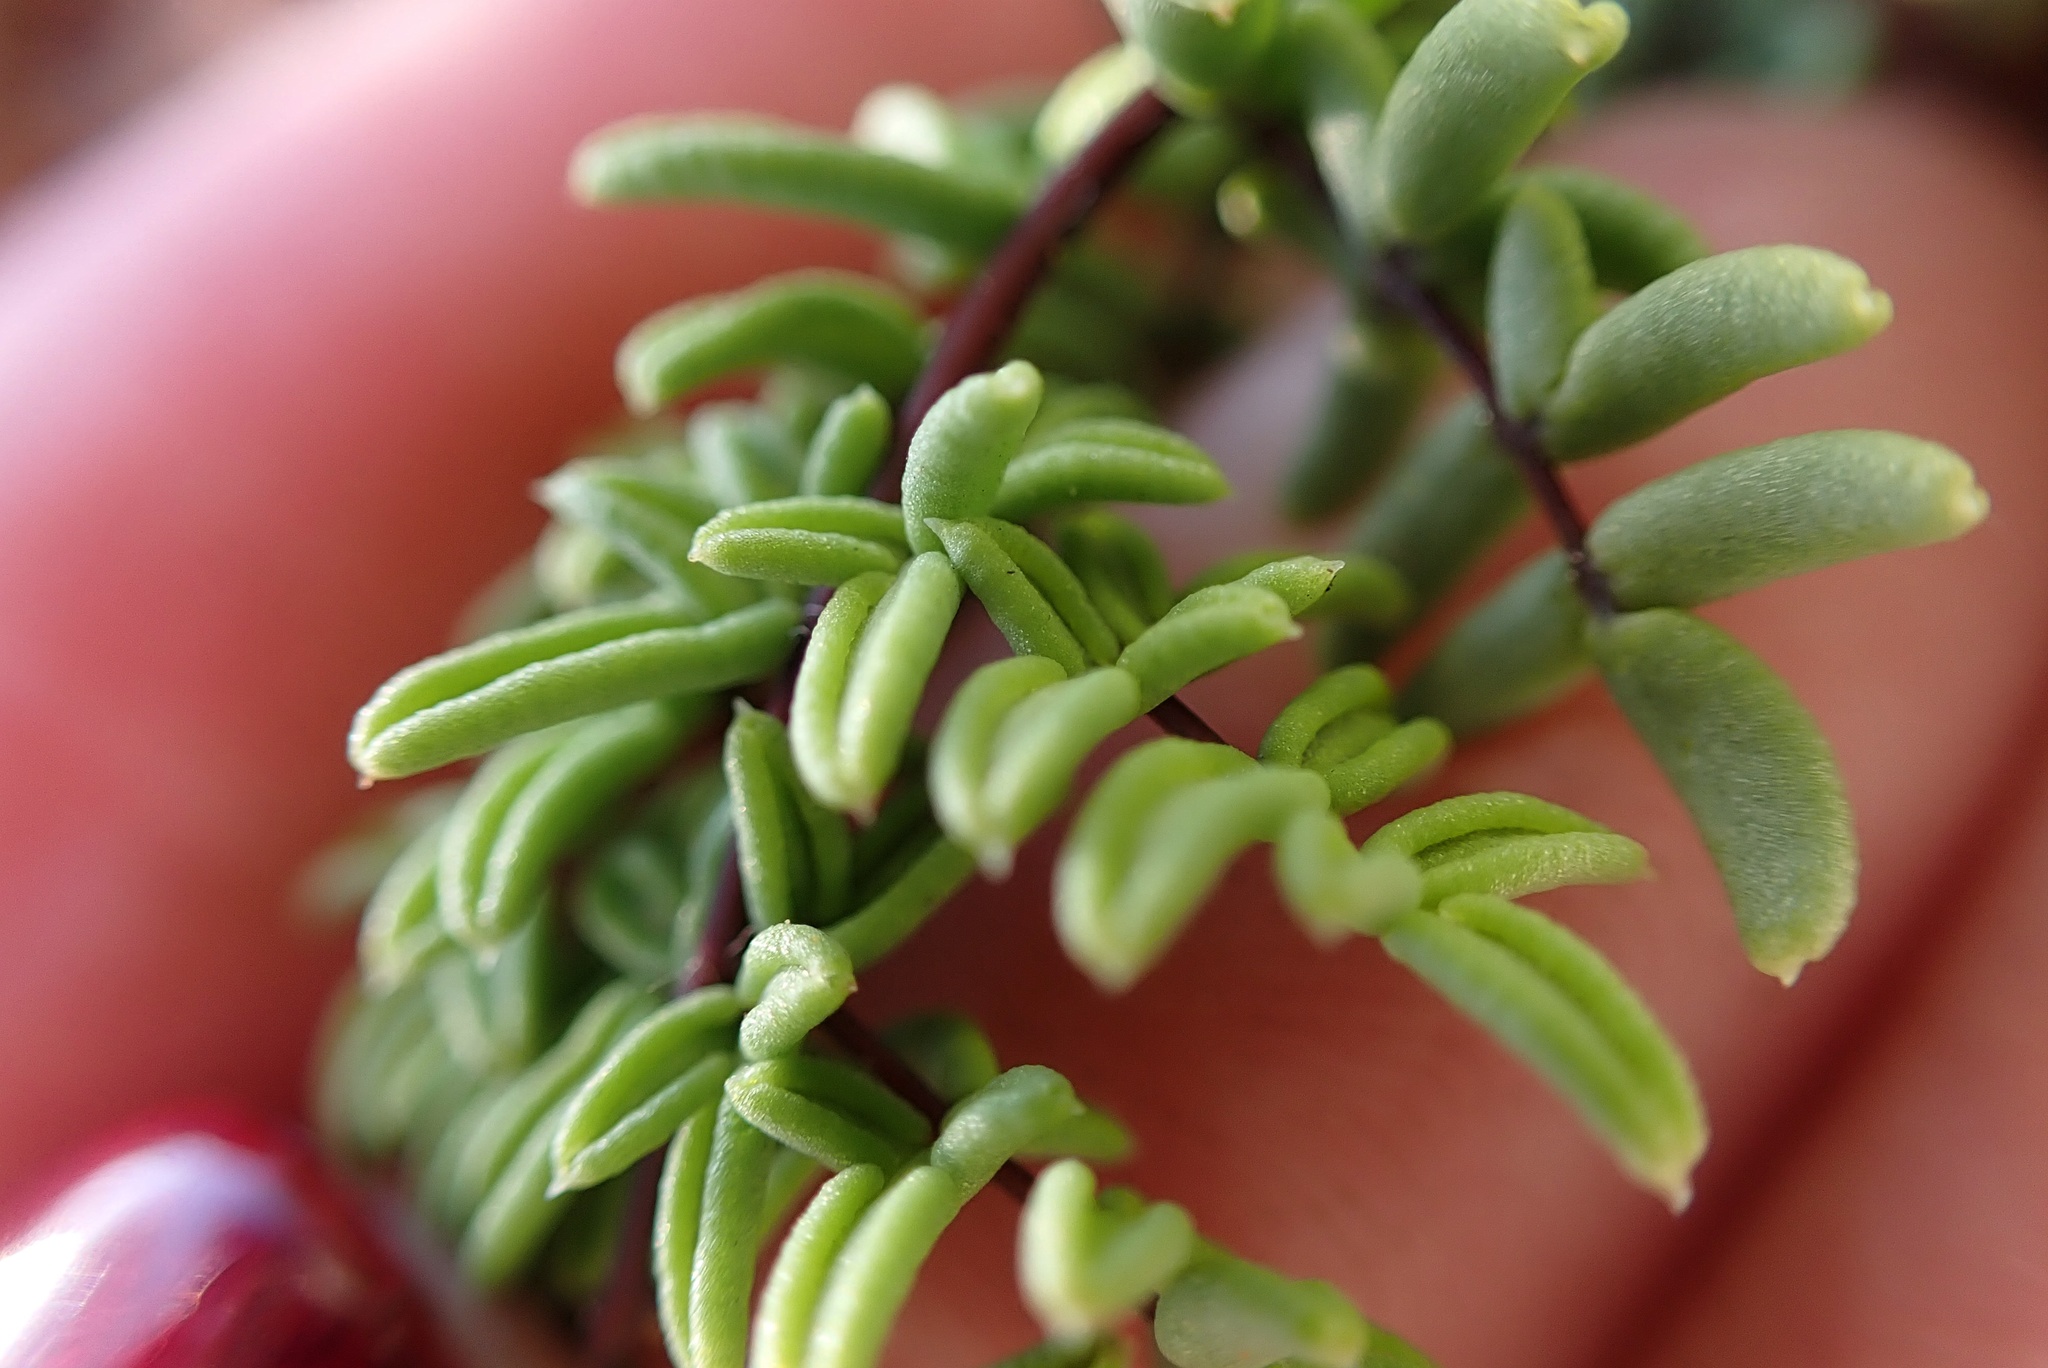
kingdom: Plantae
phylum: Tracheophyta
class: Polypodiopsida
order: Polypodiales
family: Pteridaceae
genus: Pellaea
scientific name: Pellaea mucronata
